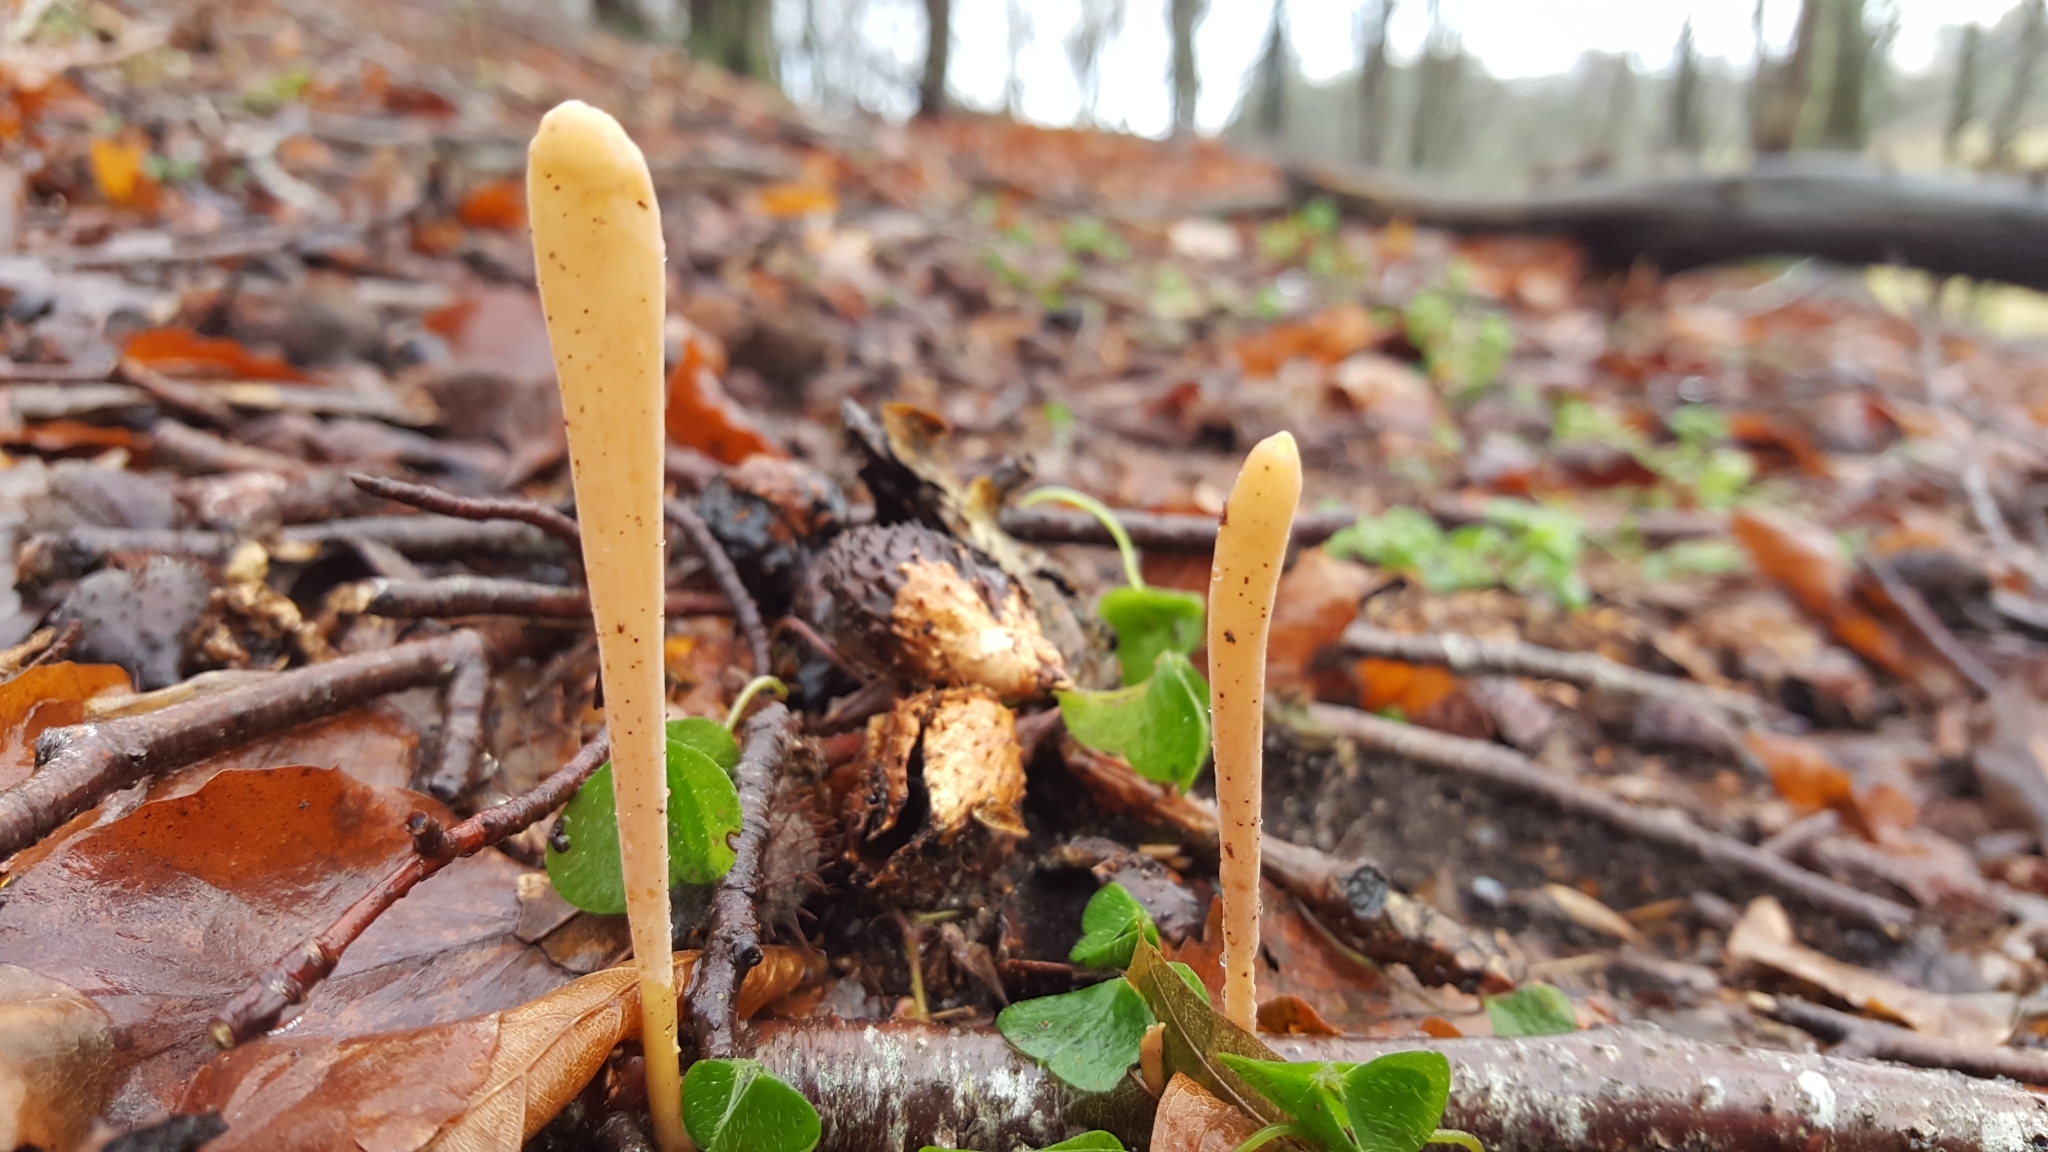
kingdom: Fungi
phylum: Basidiomycota
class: Agaricomycetes
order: Agaricales
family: Typhulaceae
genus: Typhula
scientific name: Typhula fistulosa
